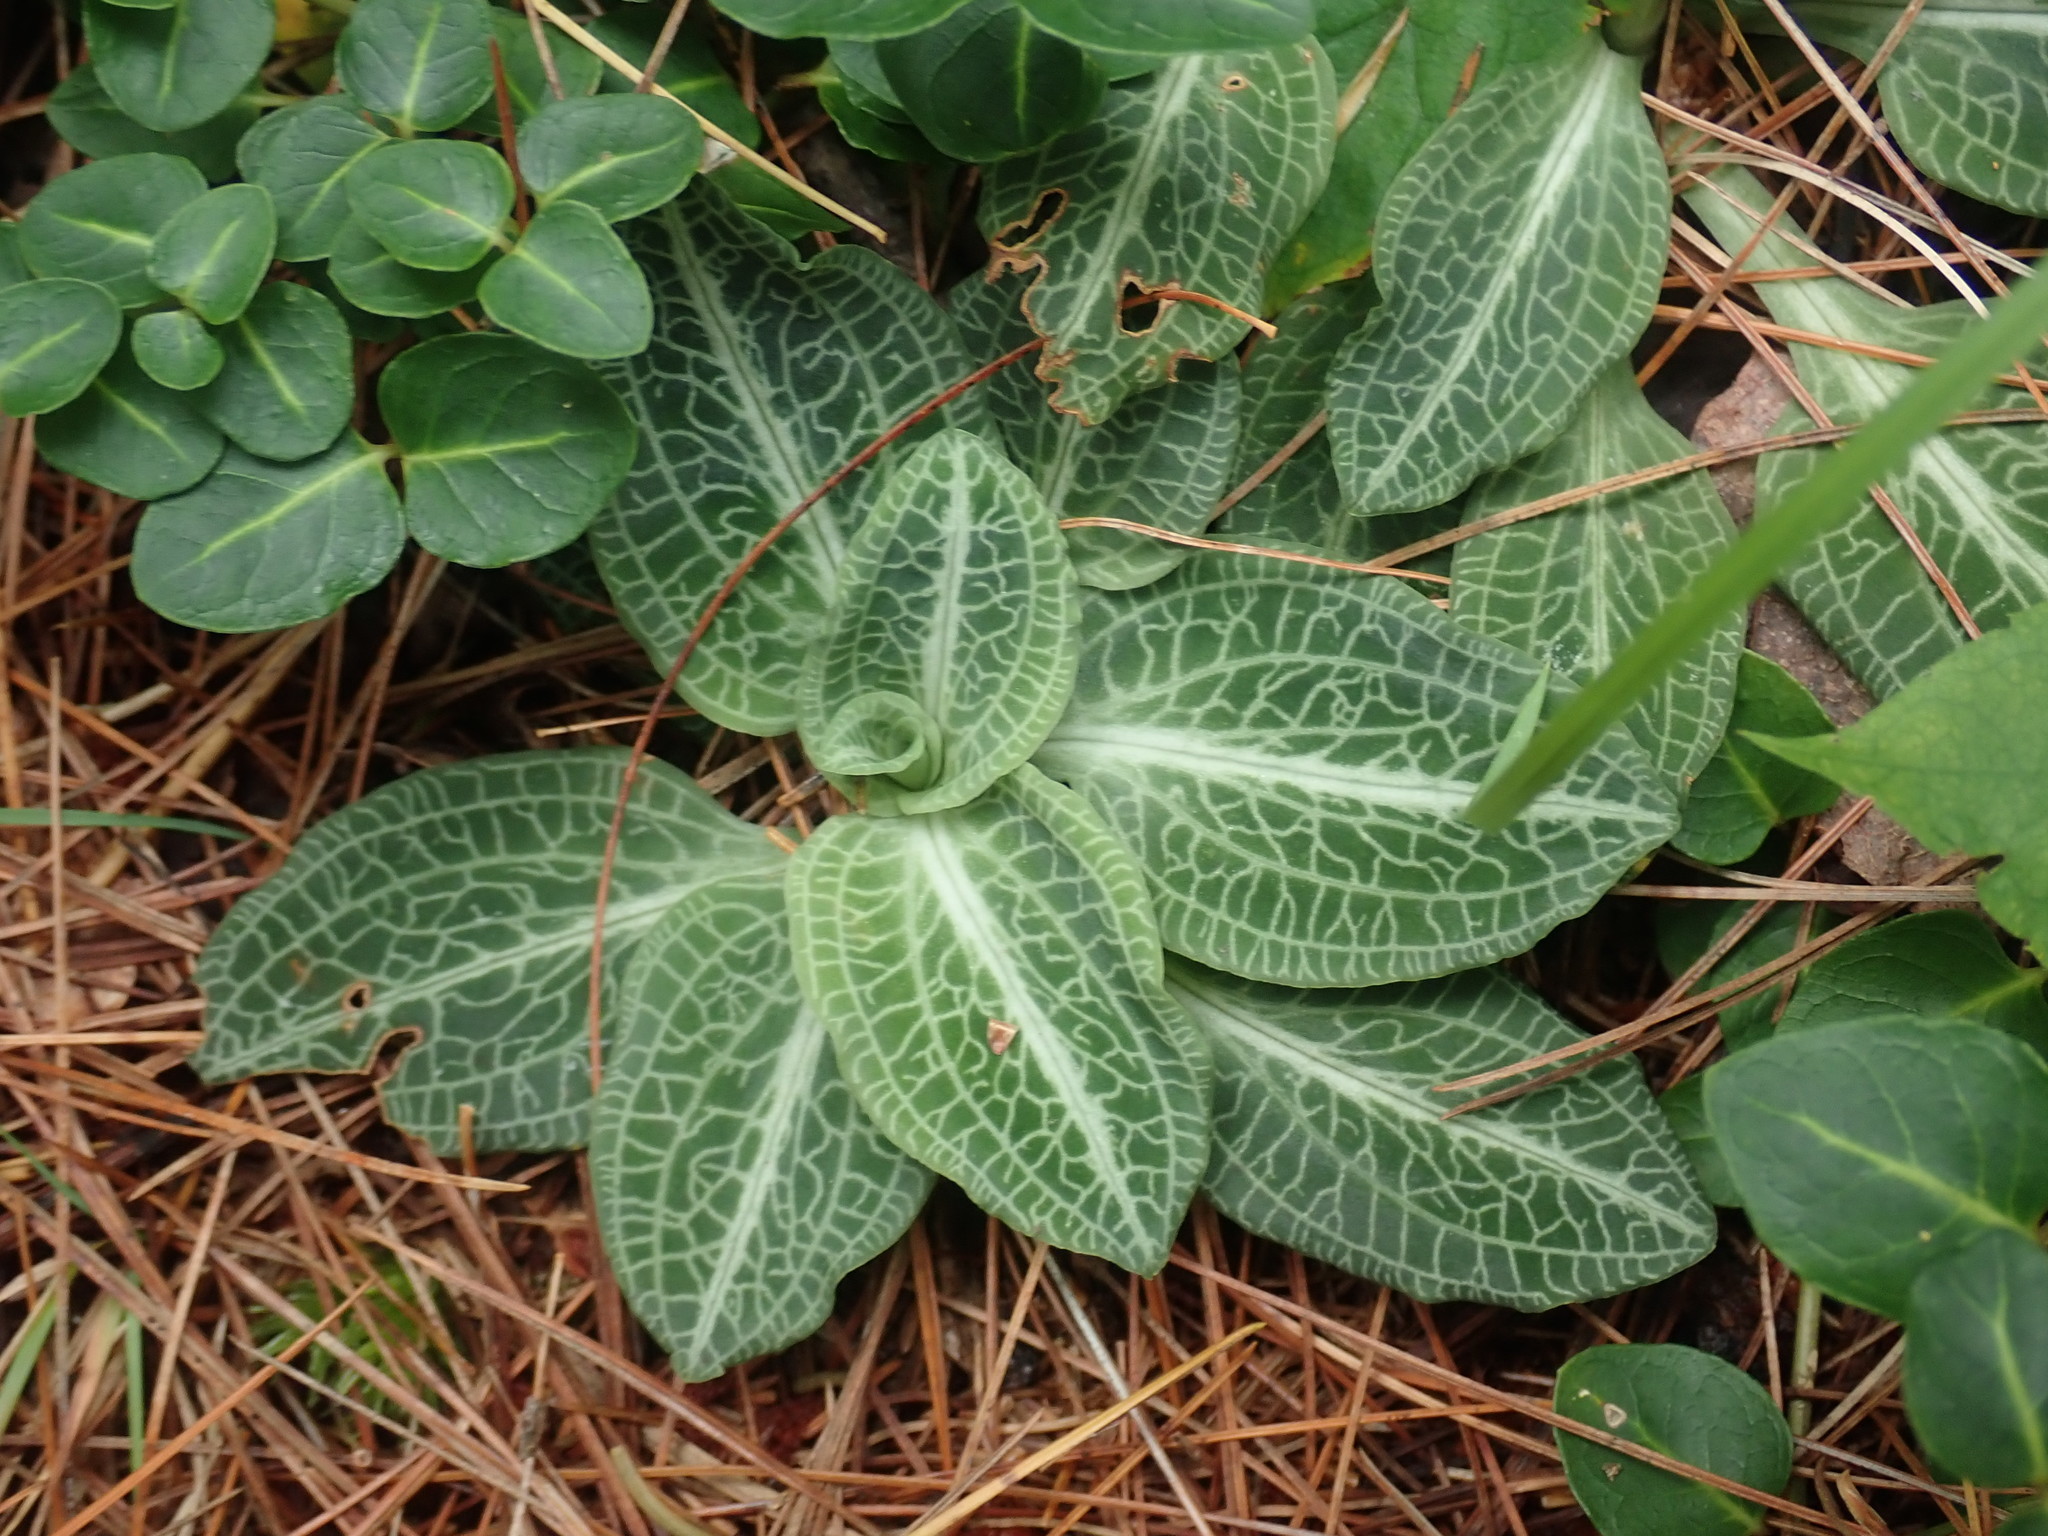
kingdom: Plantae
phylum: Tracheophyta
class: Liliopsida
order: Asparagales
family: Orchidaceae
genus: Goodyera
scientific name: Goodyera pubescens
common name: Downy rattlesnake-plantain
